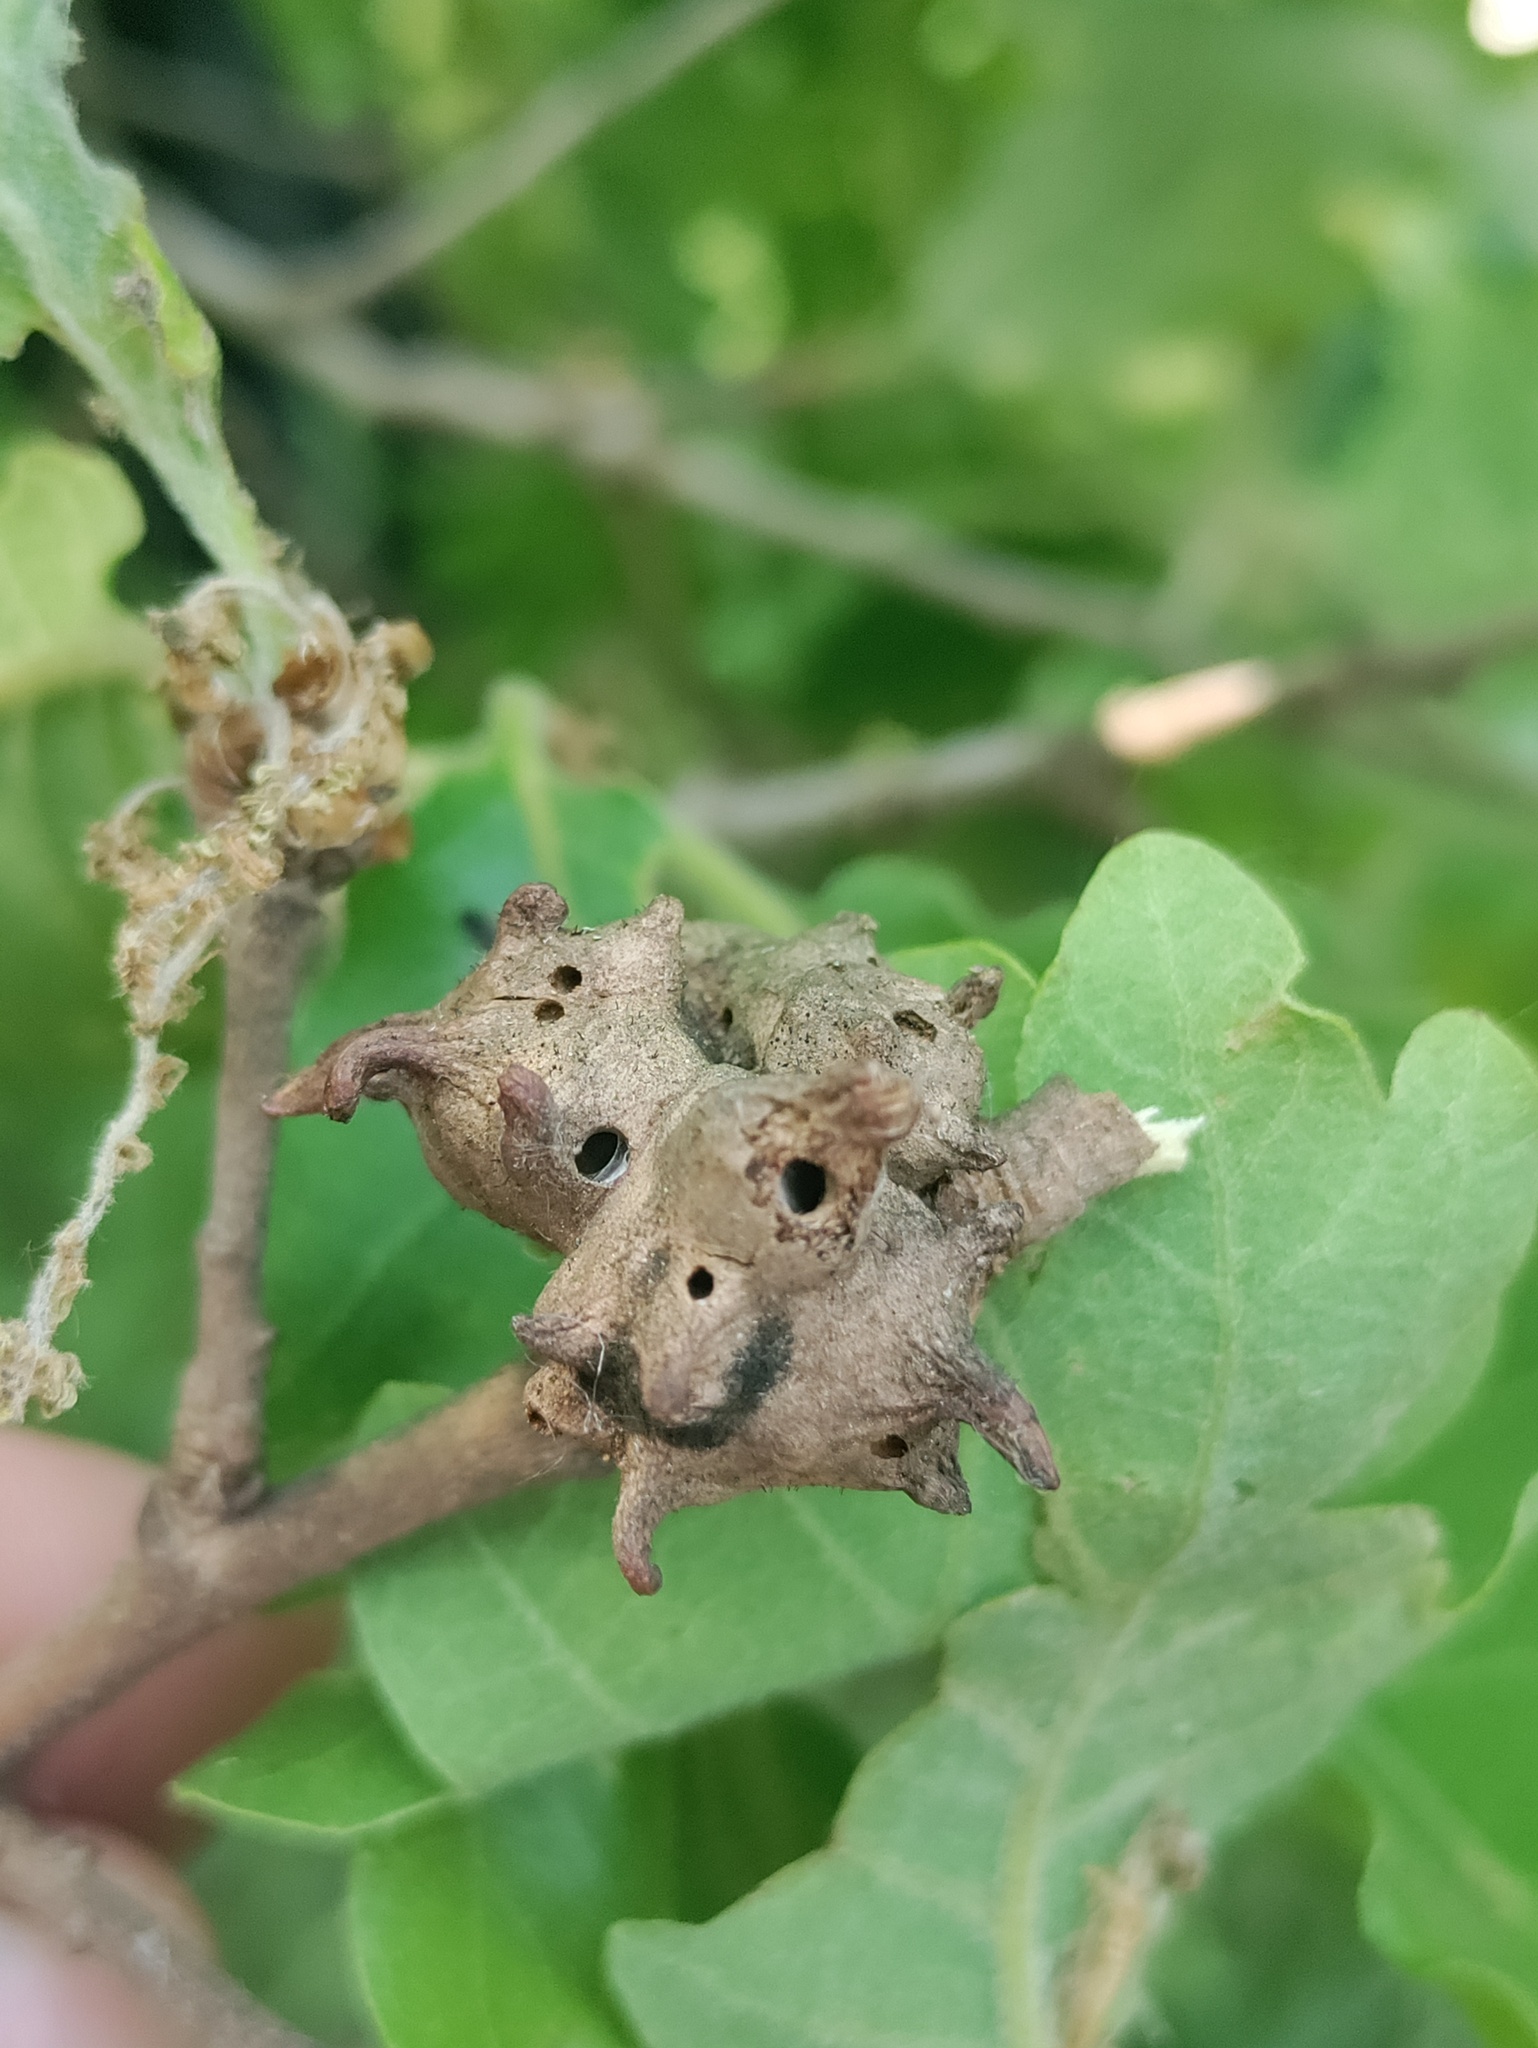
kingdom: Animalia
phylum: Arthropoda
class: Insecta
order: Hymenoptera
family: Cynipidae
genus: Andricus
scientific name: Andricus coriarius
